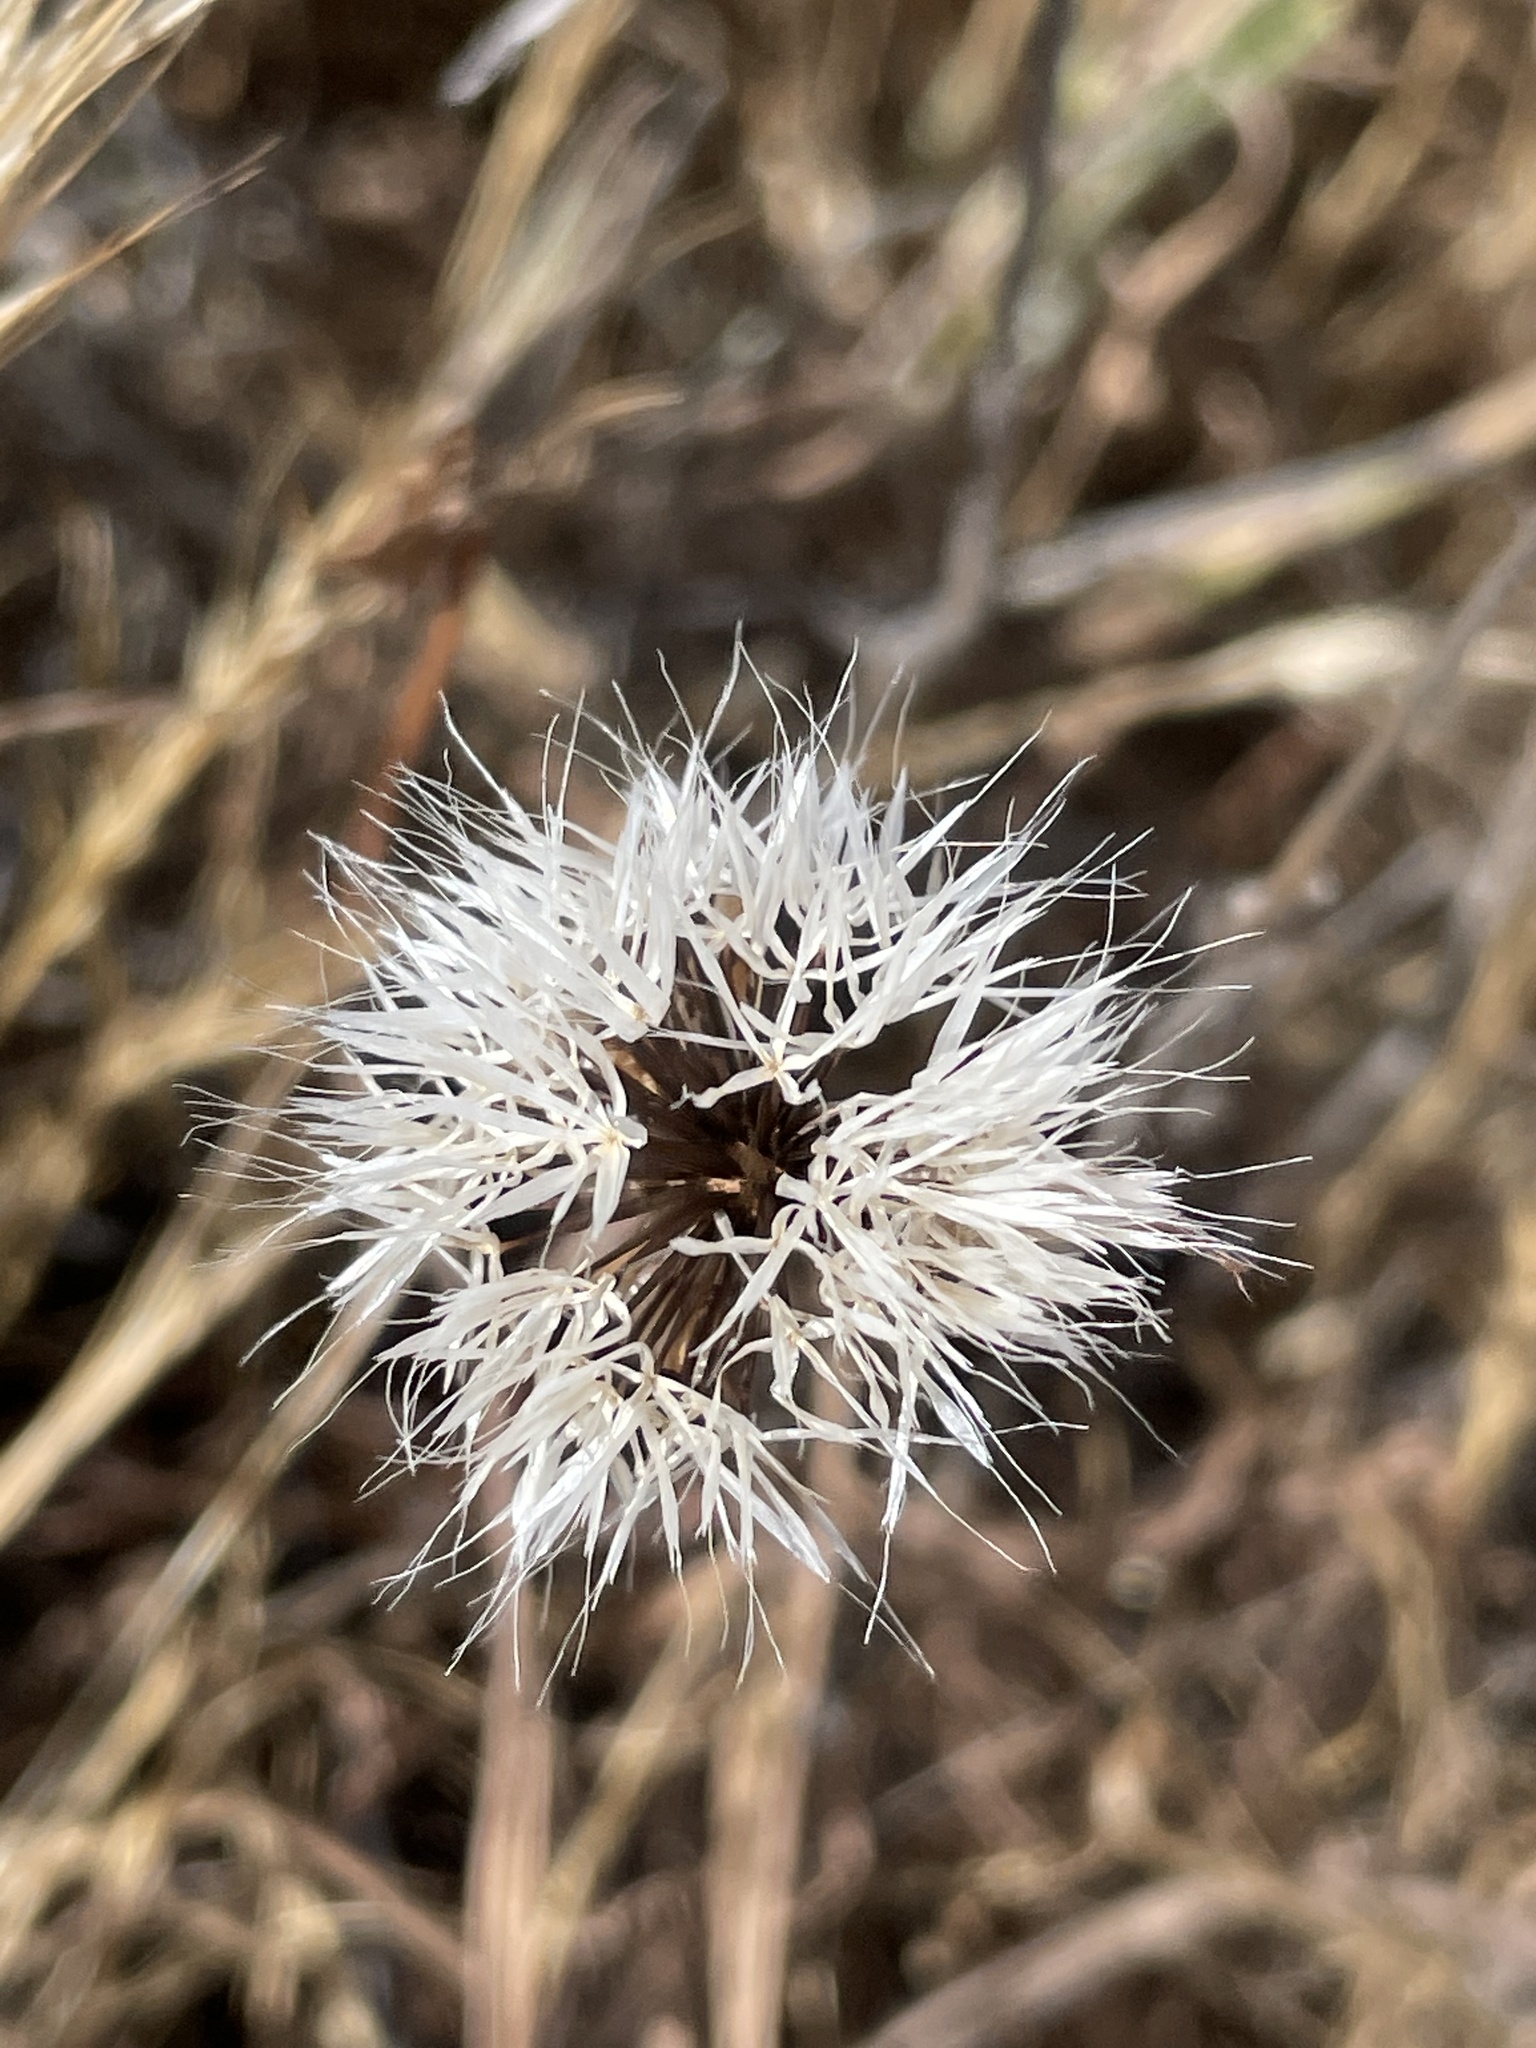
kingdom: Plantae
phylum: Tracheophyta
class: Magnoliopsida
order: Asterales
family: Asteraceae
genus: Microseris
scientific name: Microseris lindleyi
